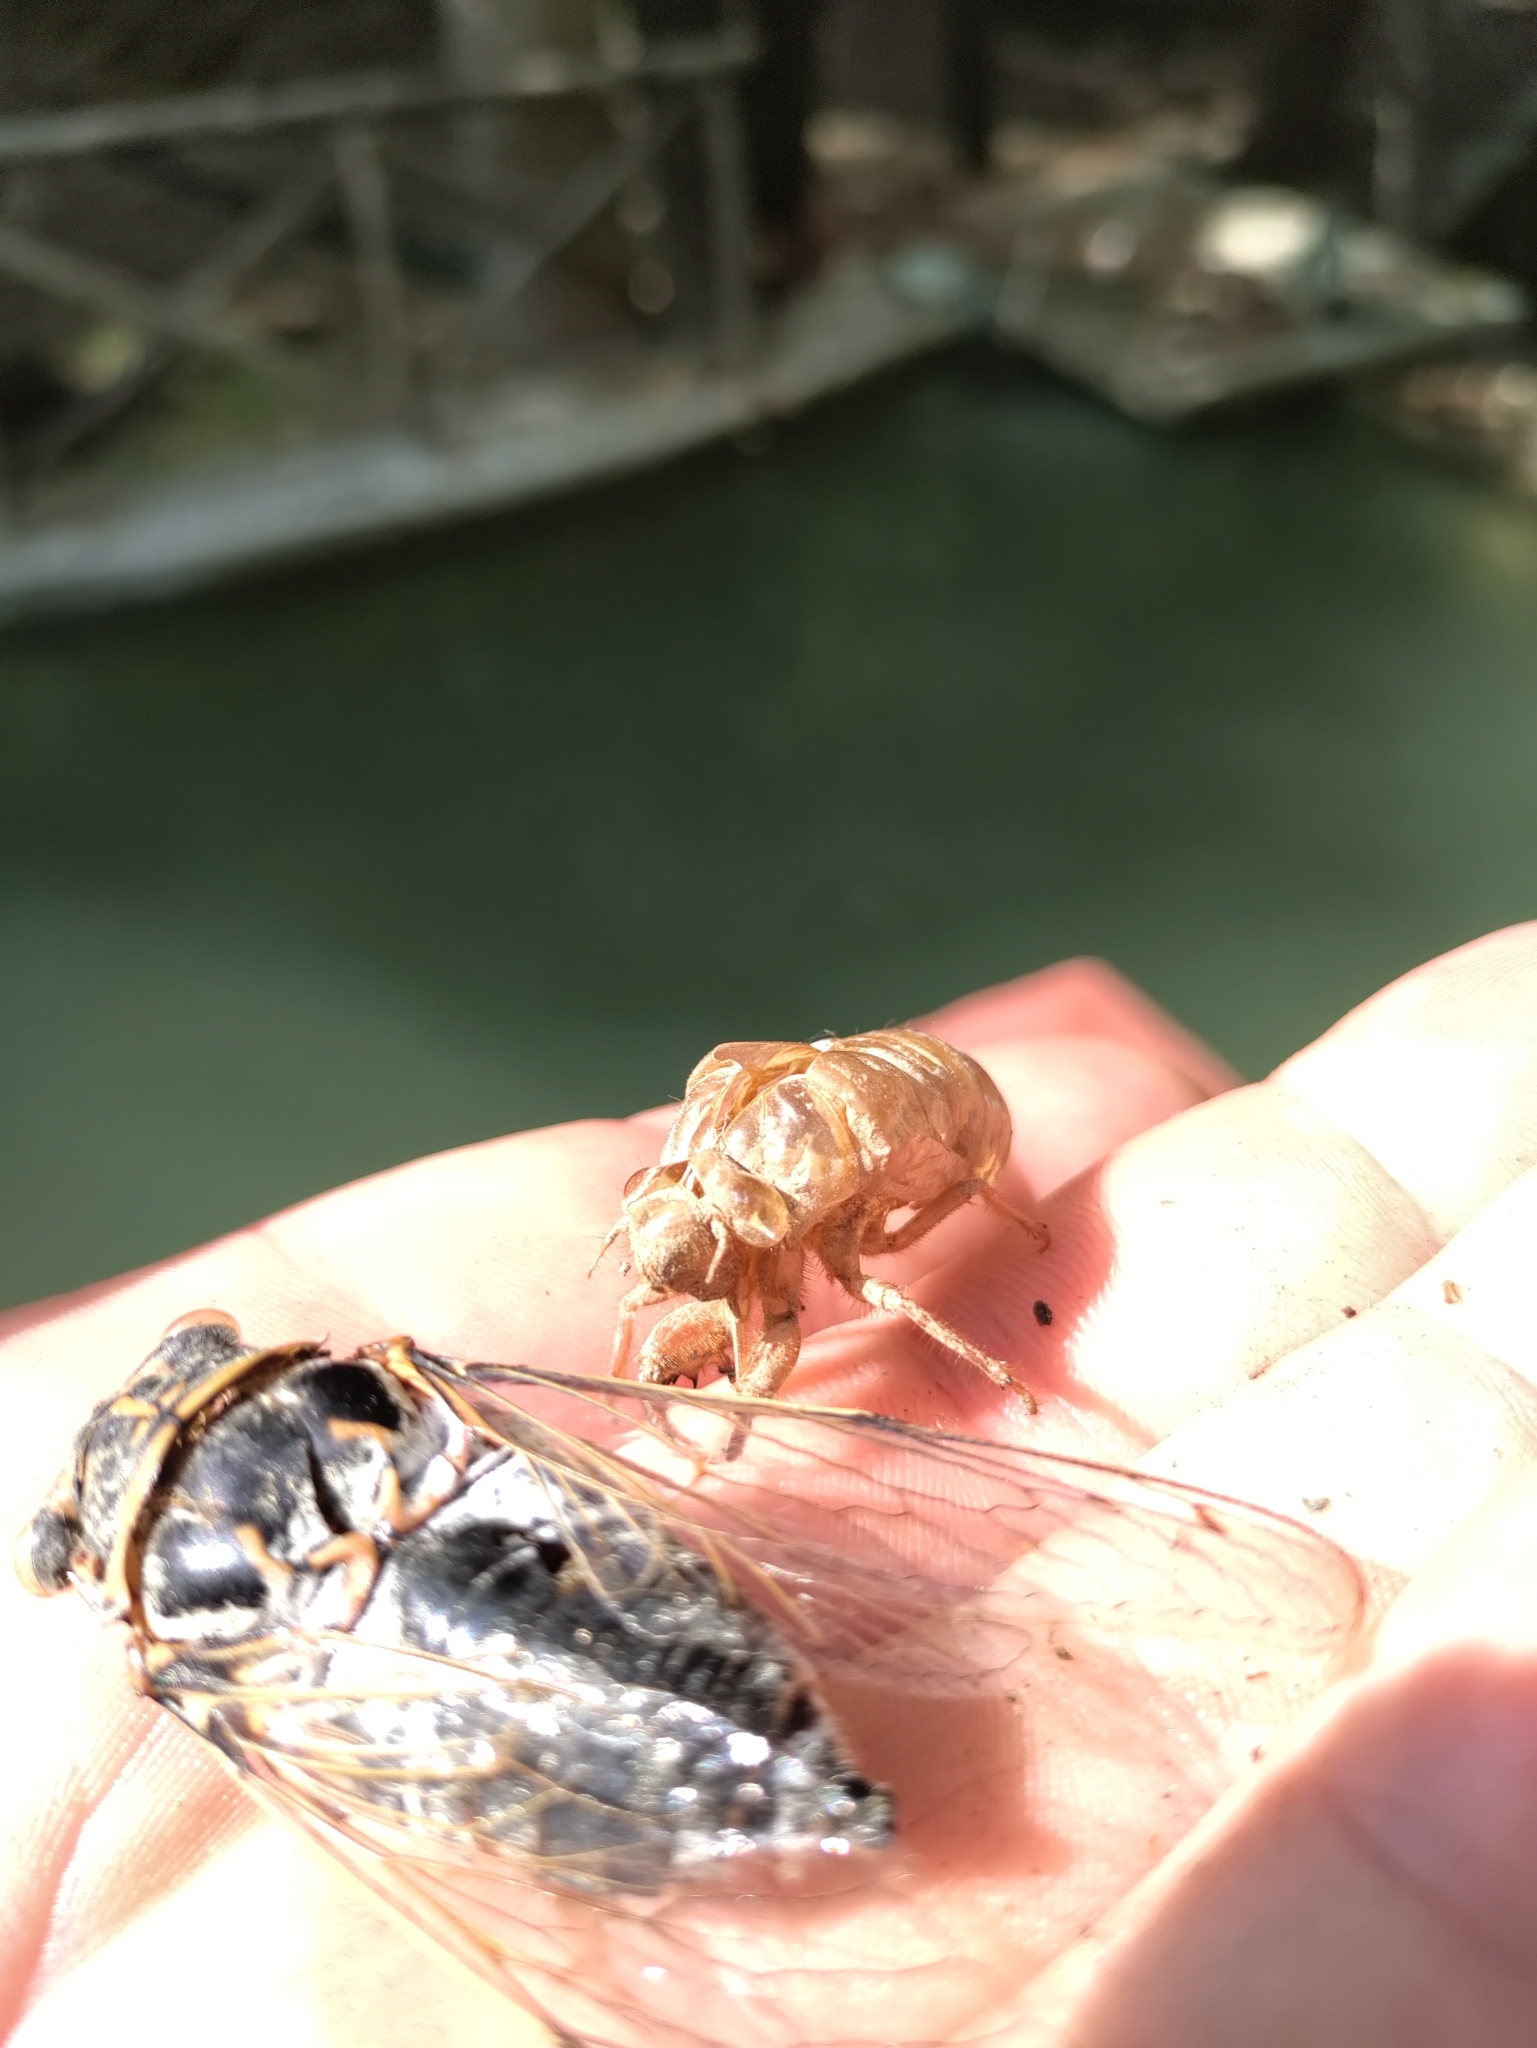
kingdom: Animalia
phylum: Arthropoda
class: Insecta
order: Hemiptera
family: Cicadidae
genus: Lyristes
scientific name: Lyristes gemellus
